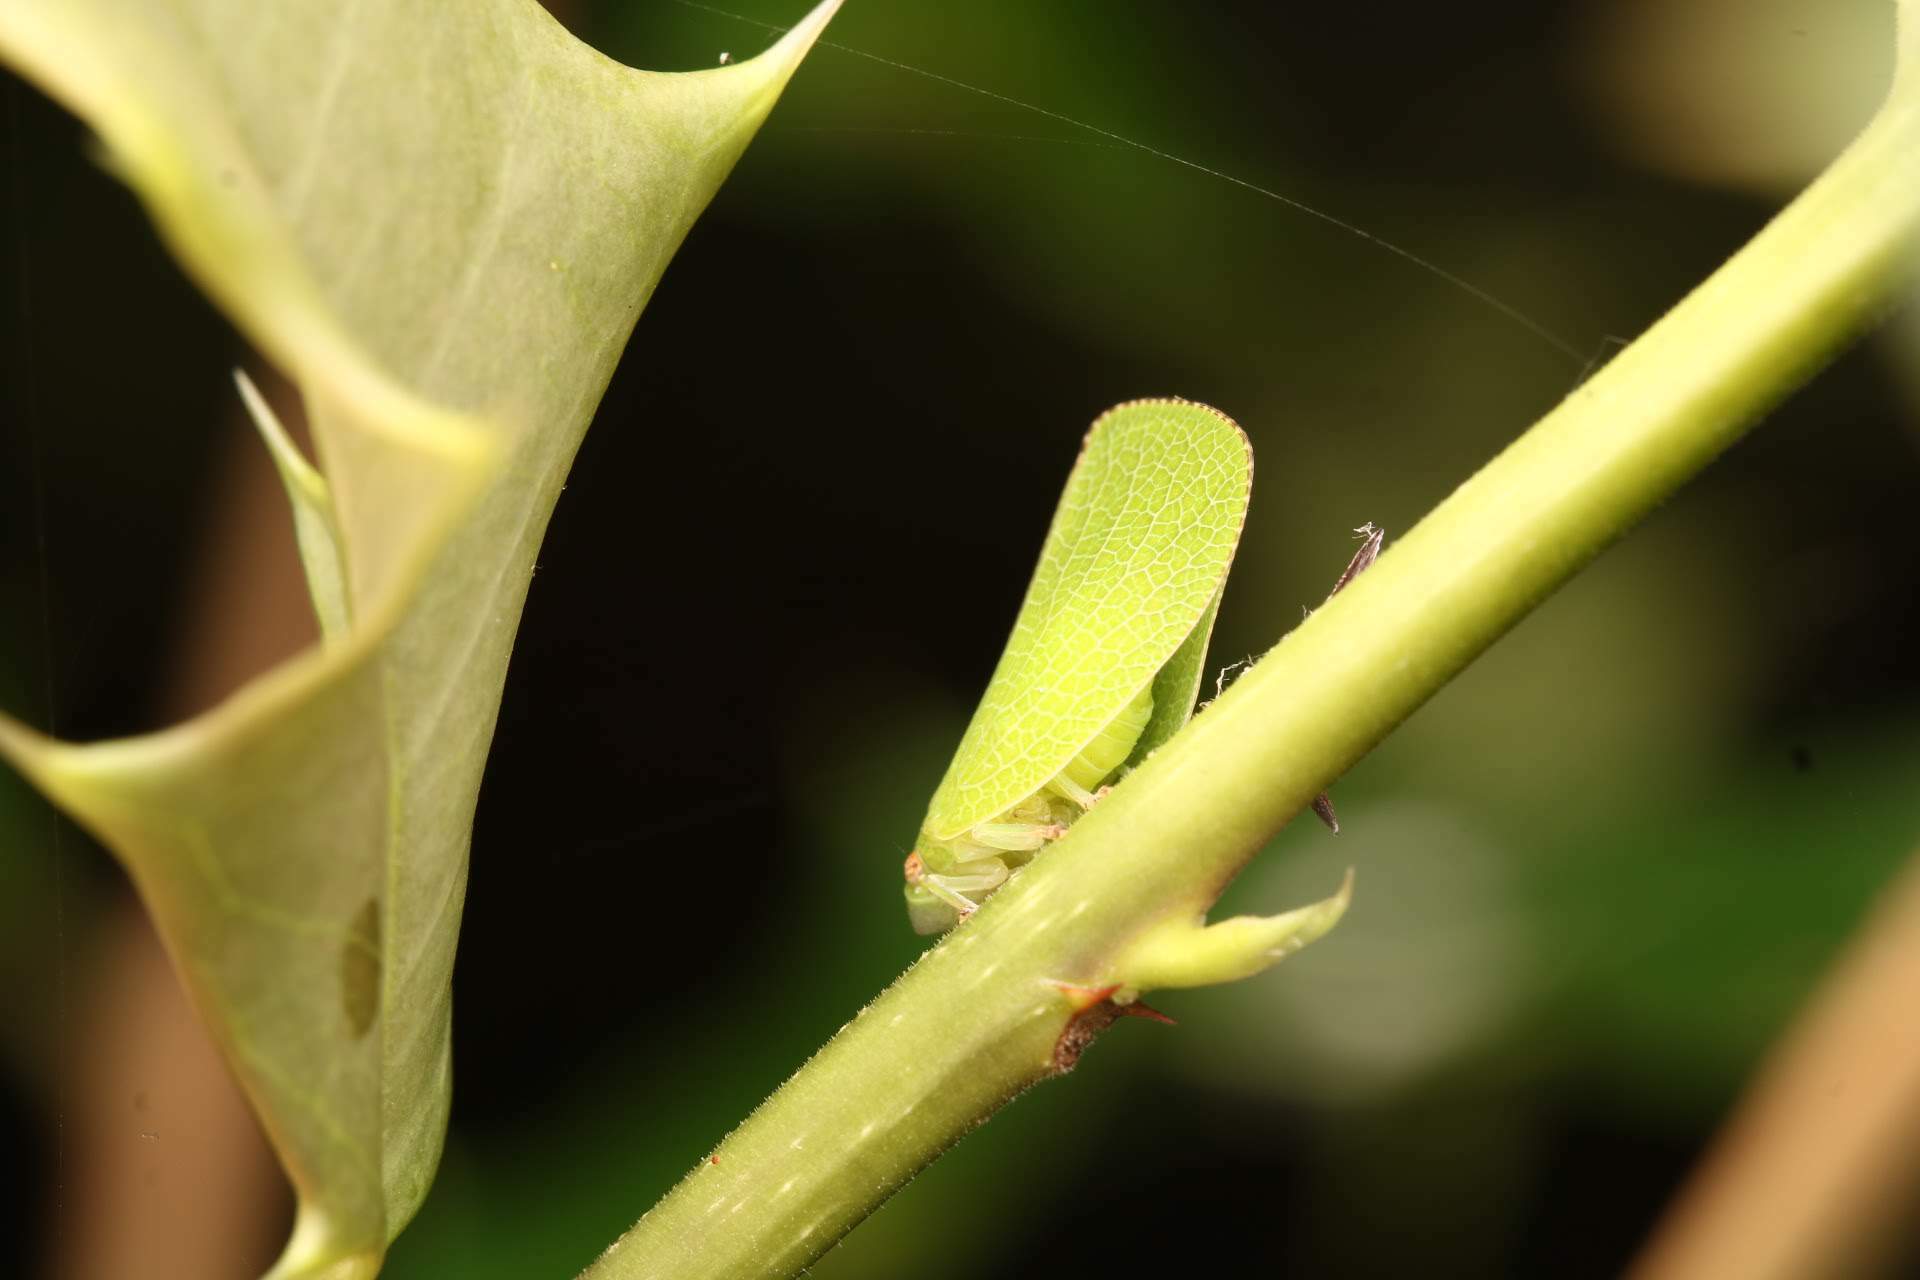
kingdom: Animalia
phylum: Arthropoda
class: Insecta
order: Hemiptera
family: Acanaloniidae
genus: Acanalonia
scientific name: Acanalonia conica
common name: Green cone-headed planthopper
